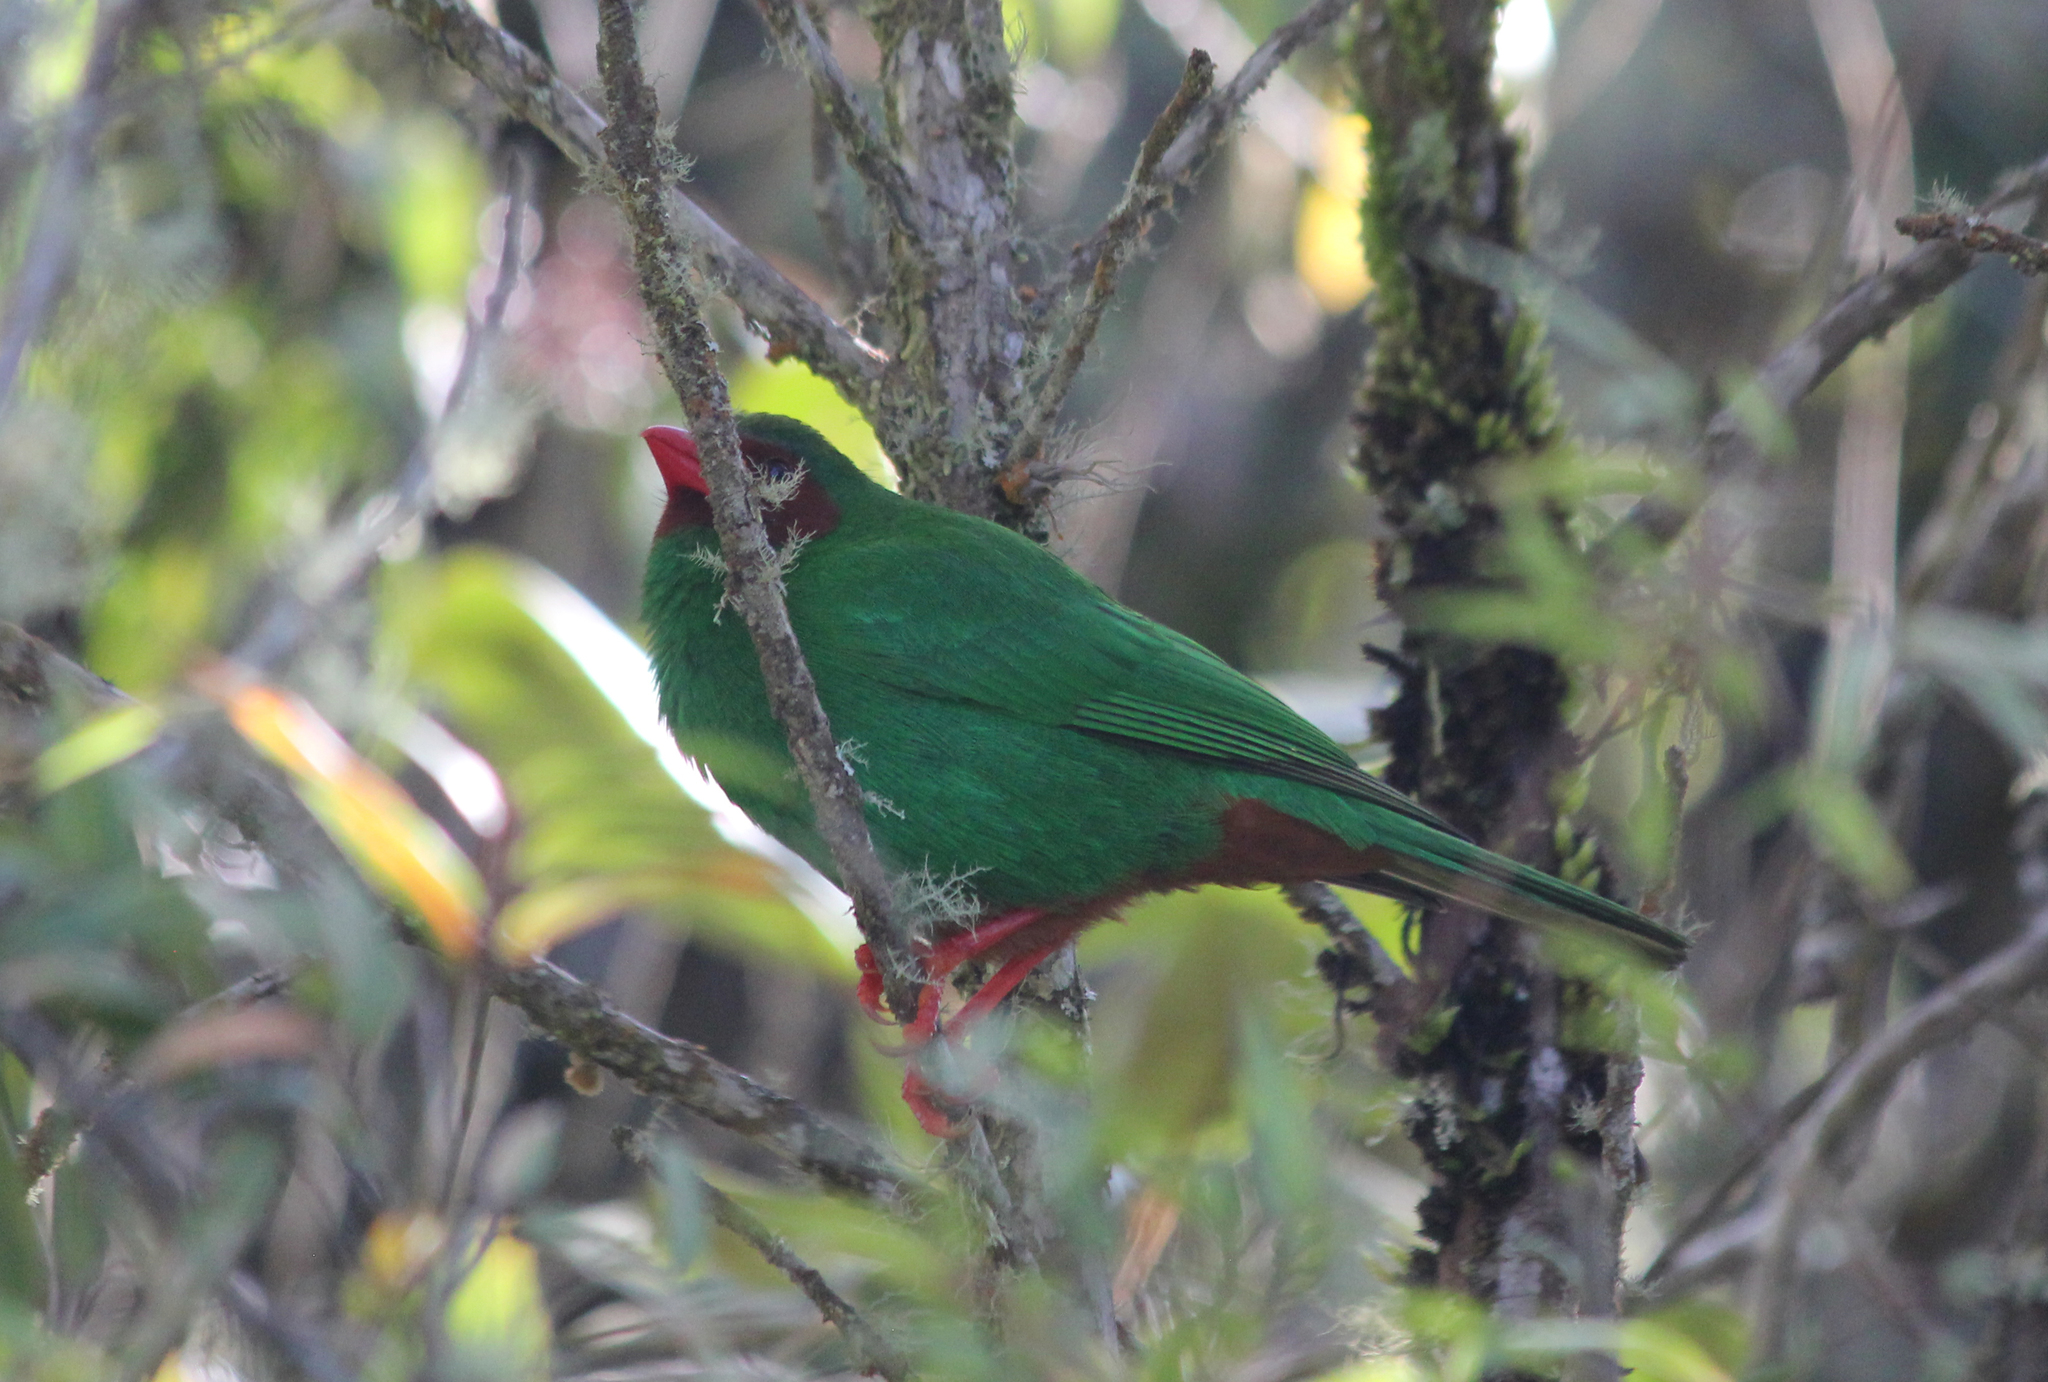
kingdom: Animalia
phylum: Chordata
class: Aves
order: Passeriformes
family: Thraupidae
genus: Chlorornis
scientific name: Chlorornis riefferii
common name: Grass-green tanager
